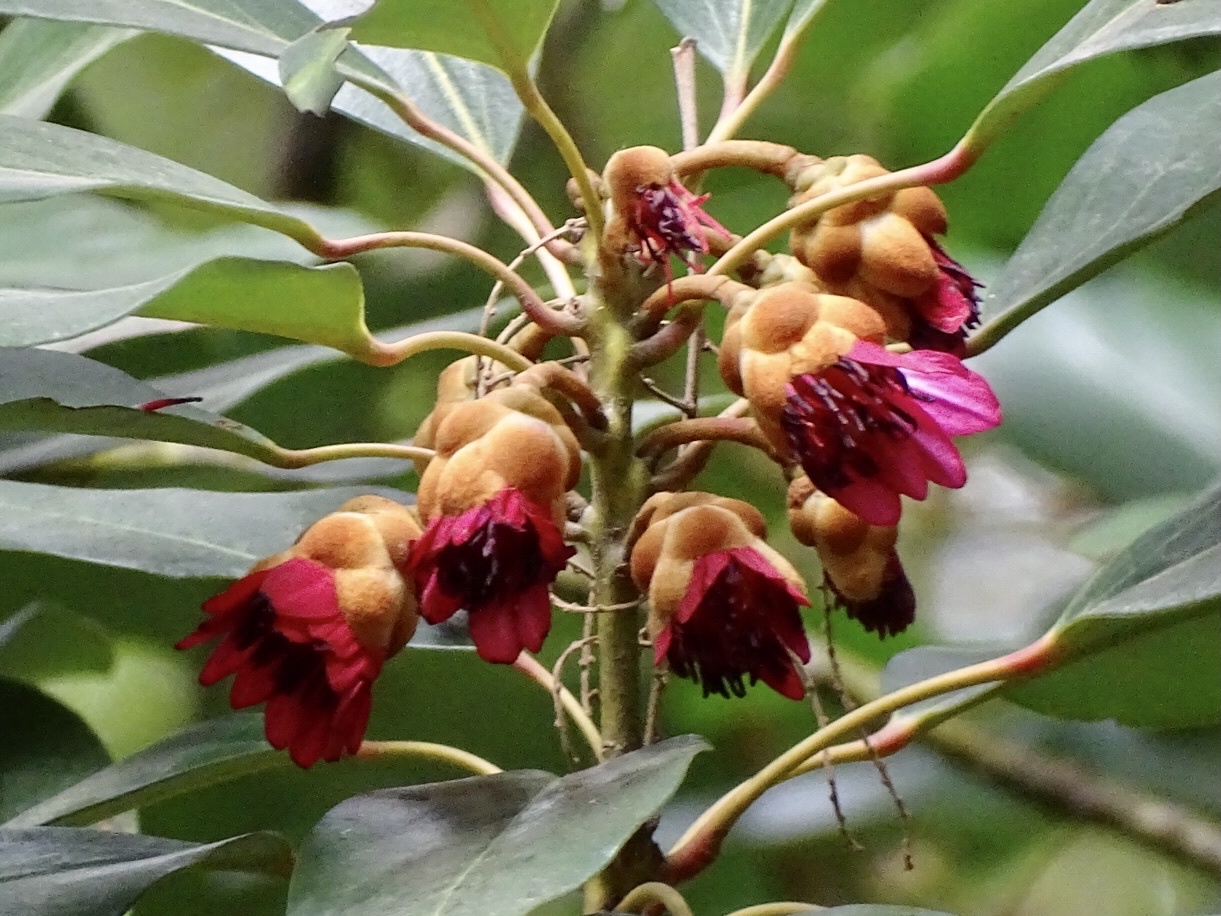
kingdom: Plantae
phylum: Tracheophyta
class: Magnoliopsida
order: Saxifragales
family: Hamamelidaceae
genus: Rhodoleia
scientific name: Rhodoleia championii
